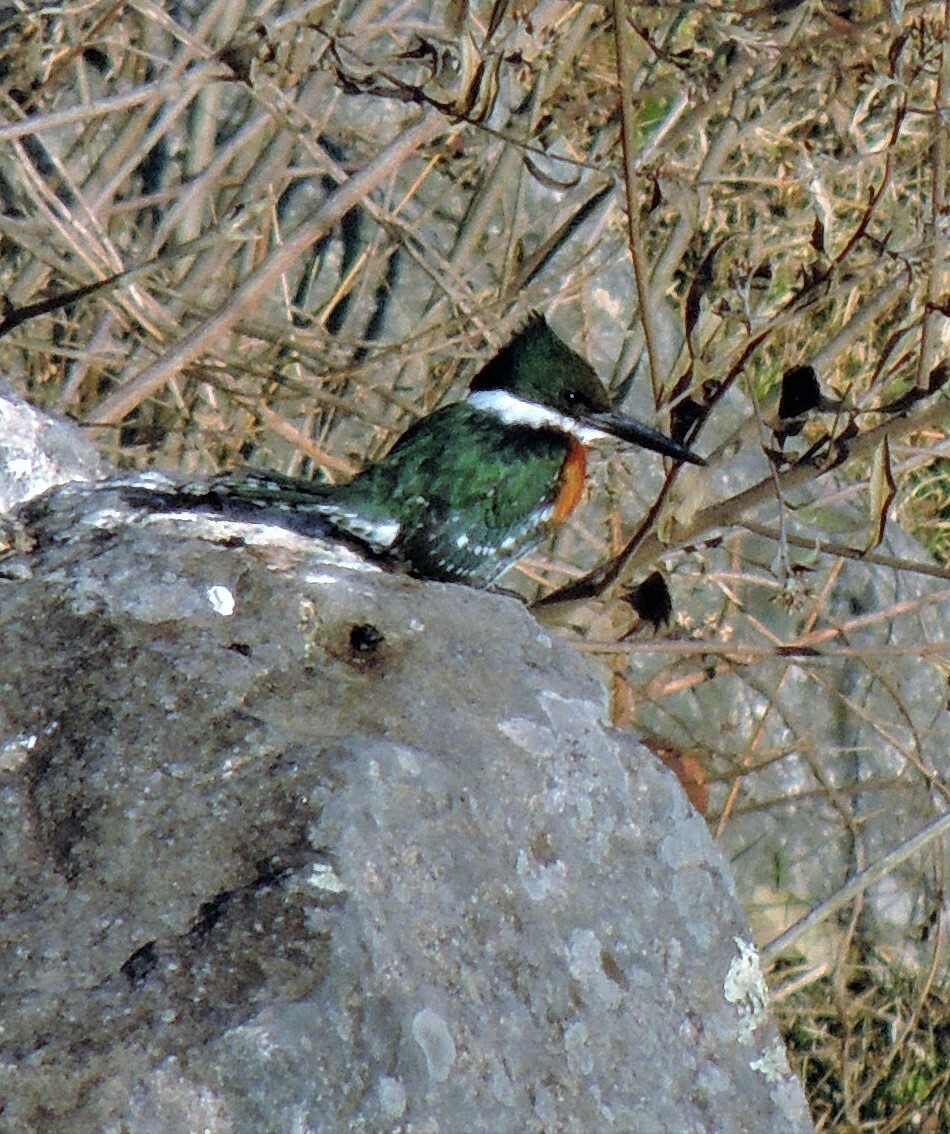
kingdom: Animalia
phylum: Chordata
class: Aves
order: Coraciiformes
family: Alcedinidae
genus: Chloroceryle
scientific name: Chloroceryle americana
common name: Green kingfisher
